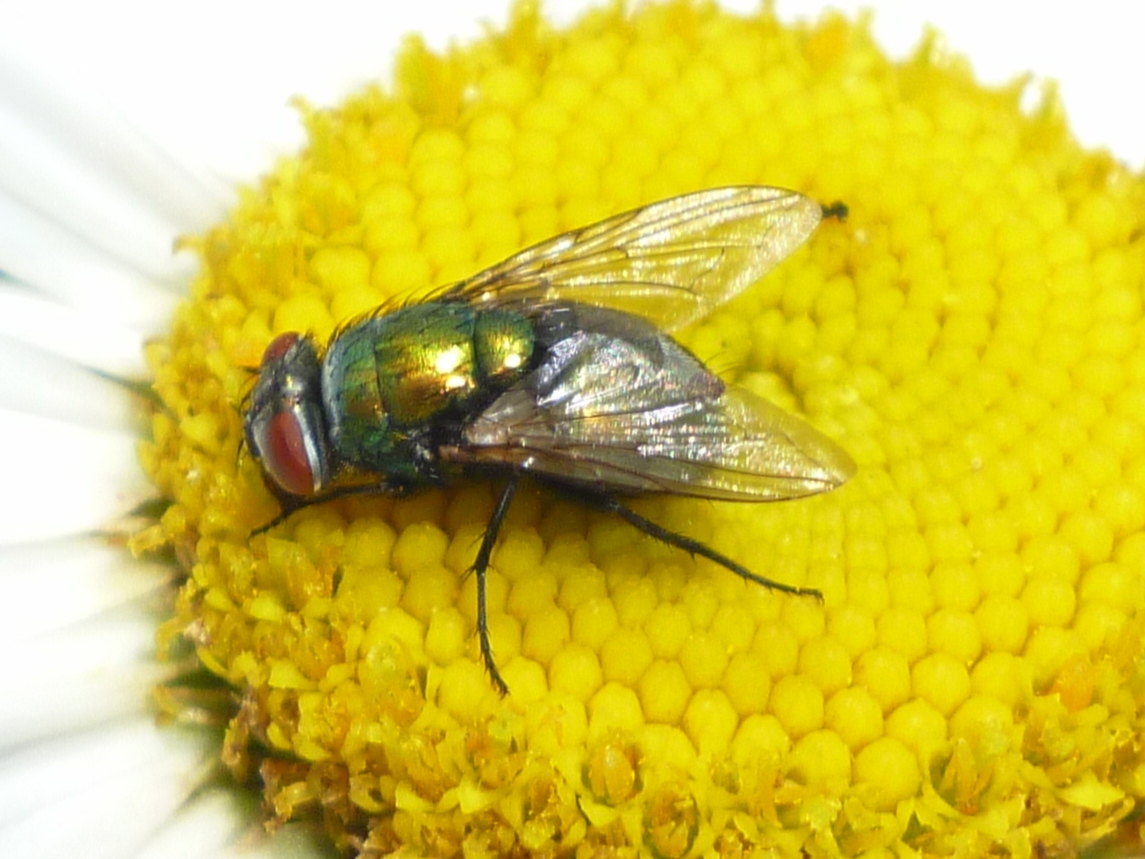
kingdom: Animalia
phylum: Arthropoda
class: Insecta
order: Diptera
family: Calliphoridae
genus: Lucilia
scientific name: Lucilia sericata
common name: Blow fly
